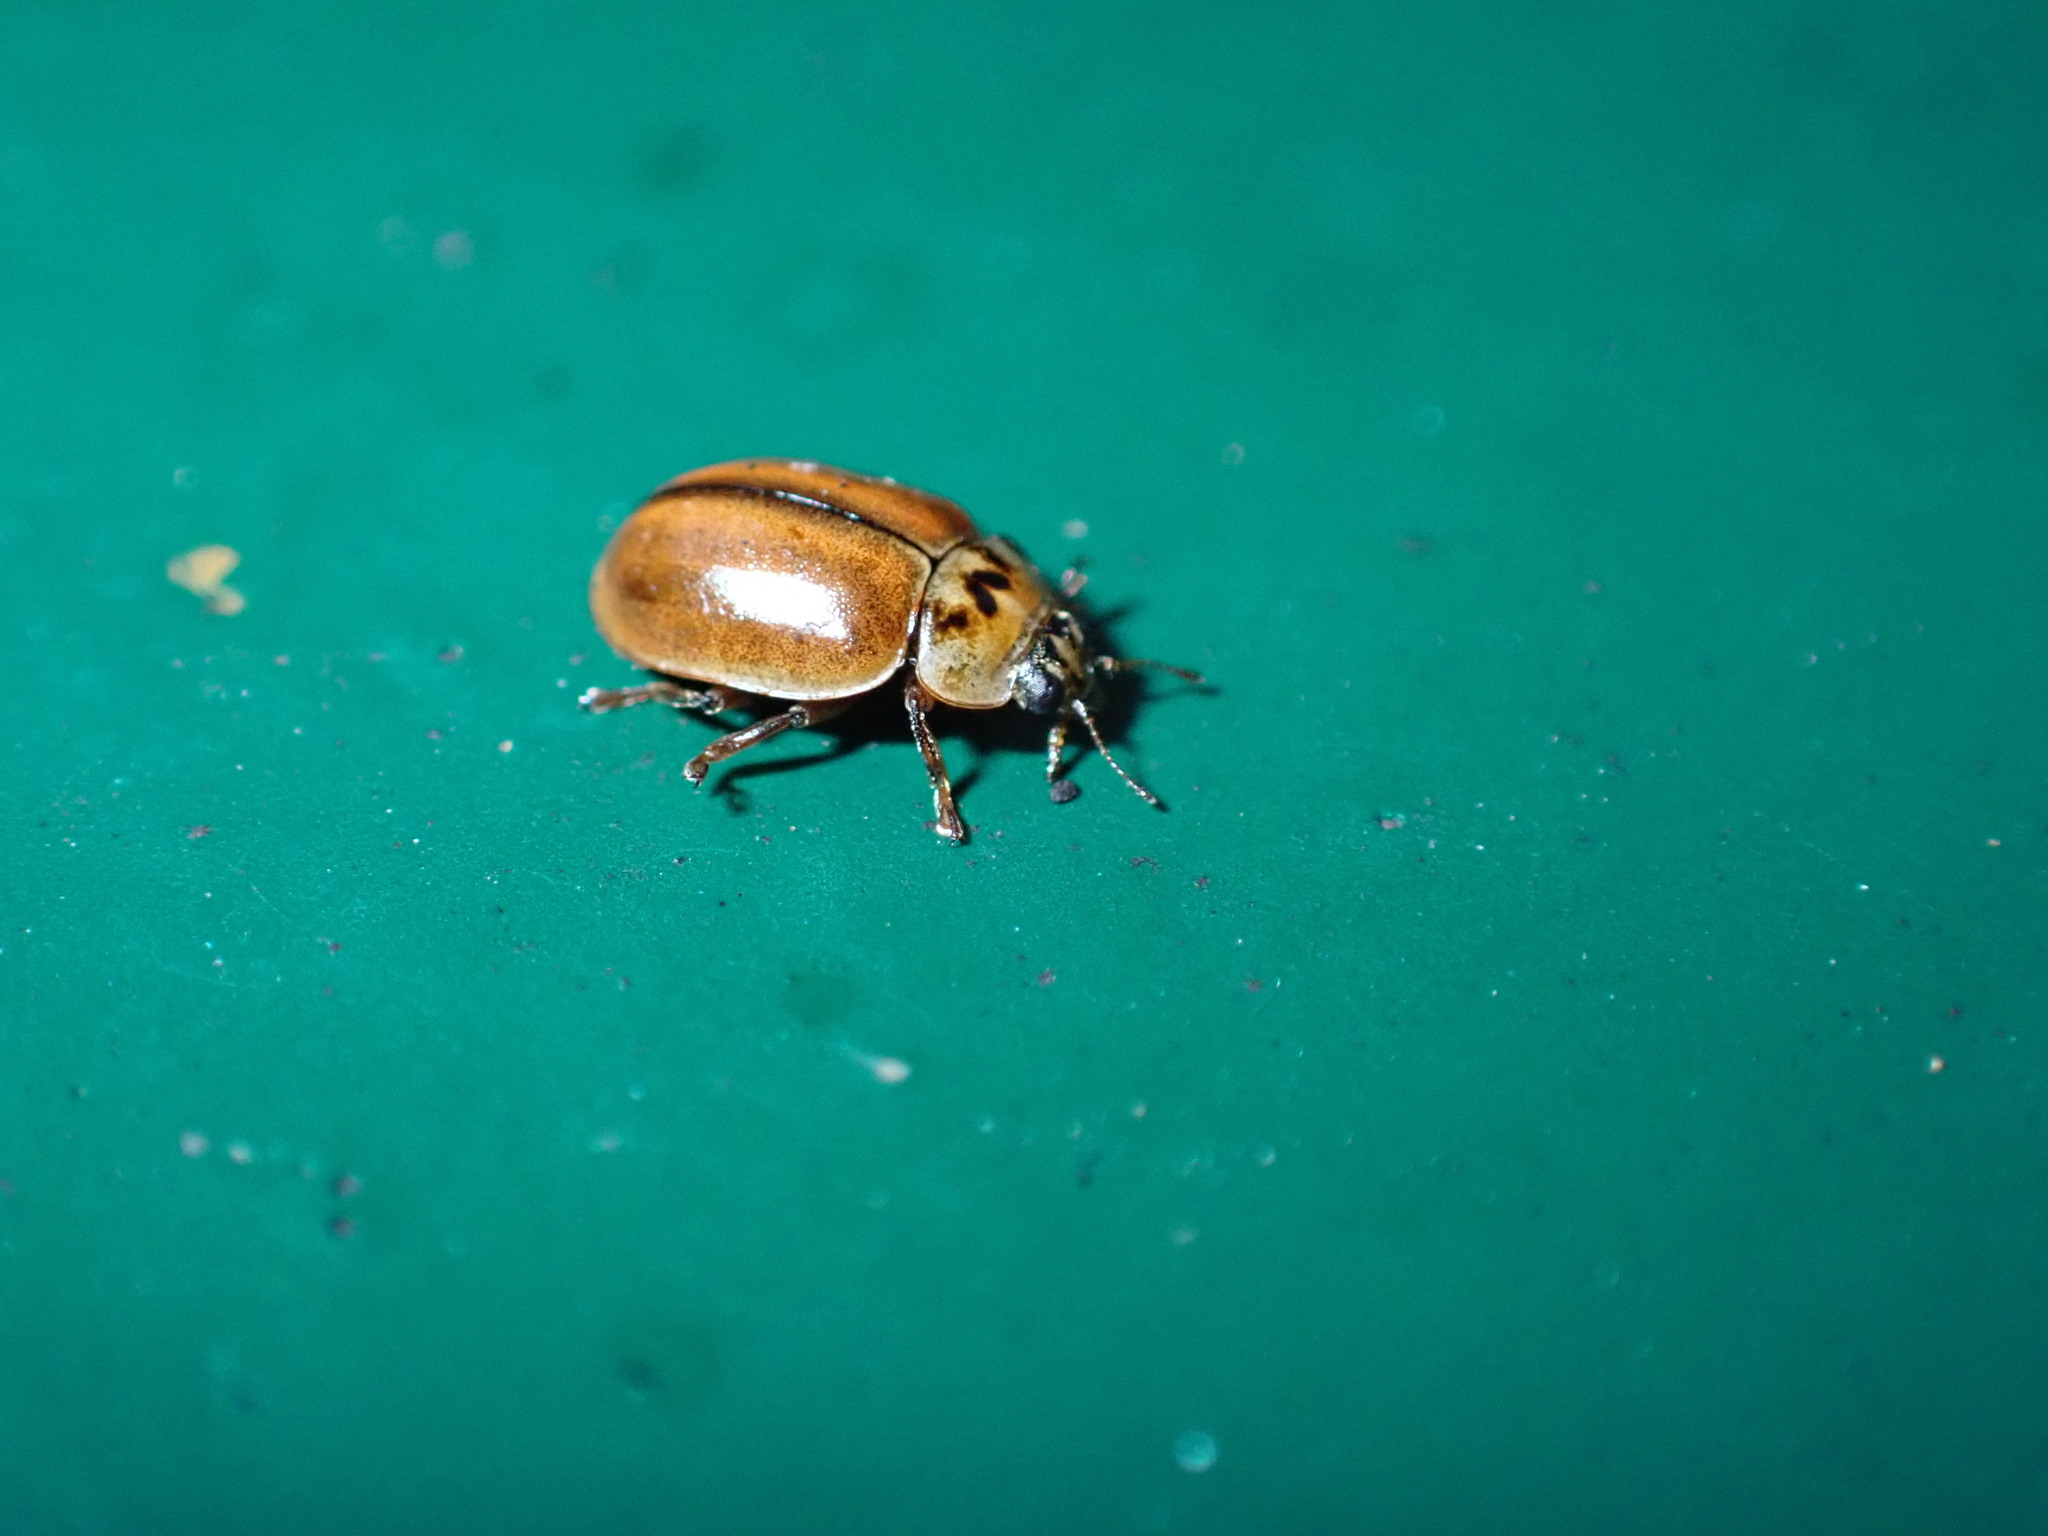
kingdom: Animalia
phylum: Arthropoda
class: Insecta
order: Coleoptera
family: Coccinellidae
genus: Aphidecta
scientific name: Aphidecta obliterata
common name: Larch ladybird
